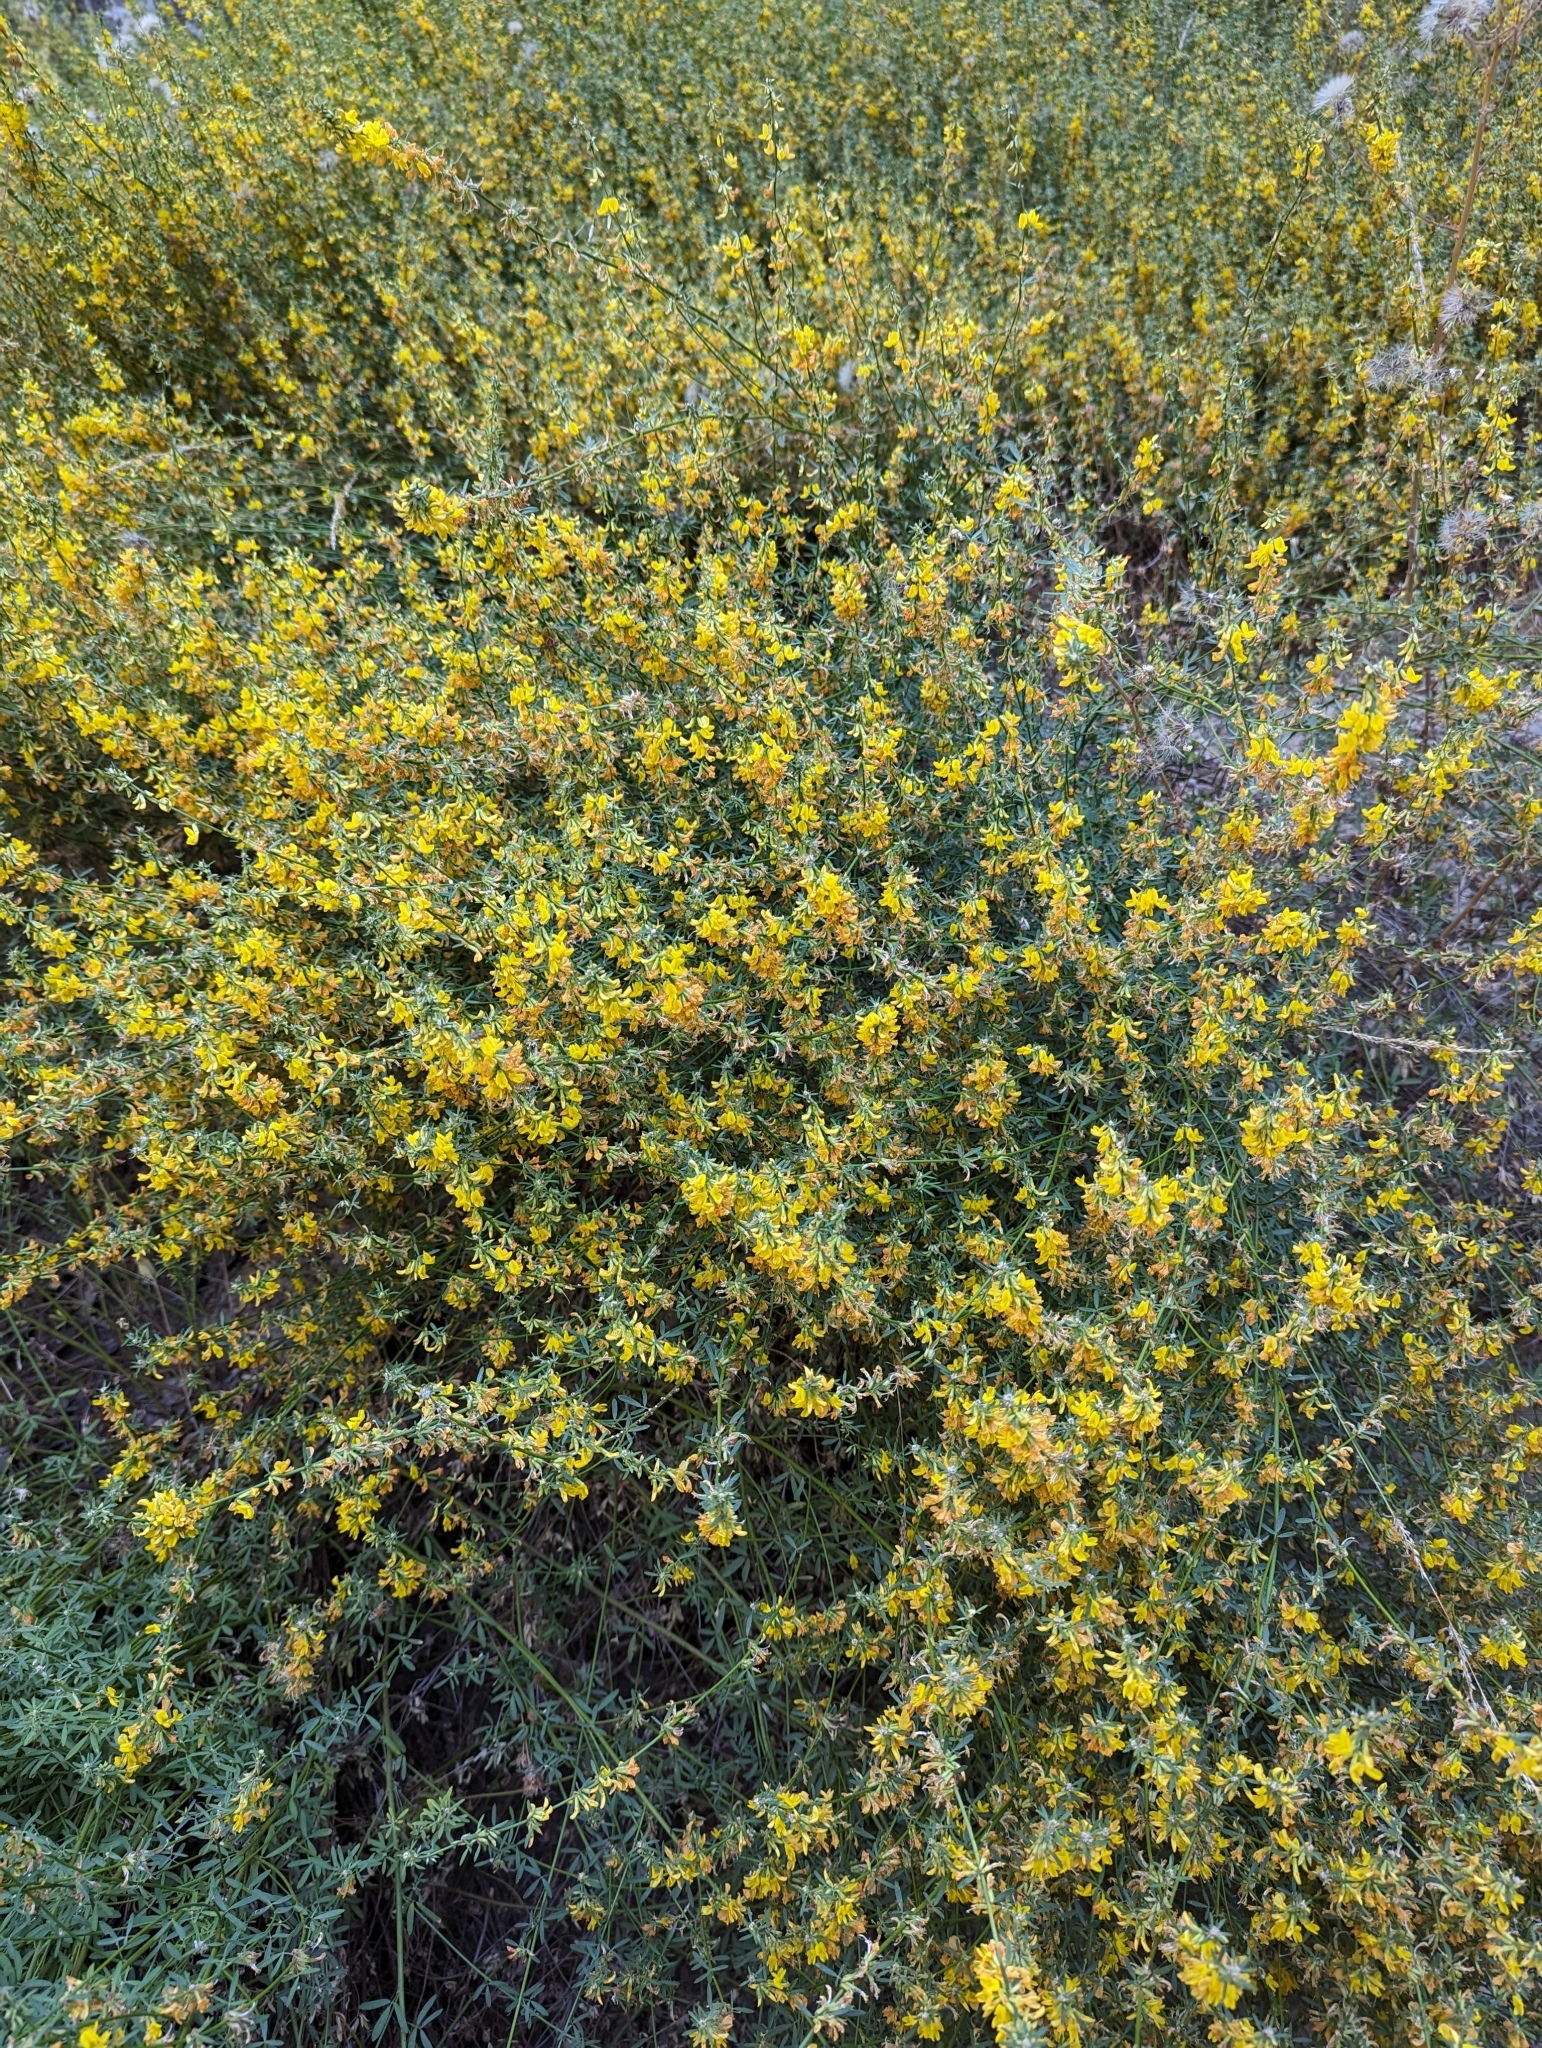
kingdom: Plantae
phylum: Tracheophyta
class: Magnoliopsida
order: Fabales
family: Fabaceae
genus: Acmispon
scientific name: Acmispon glaber
